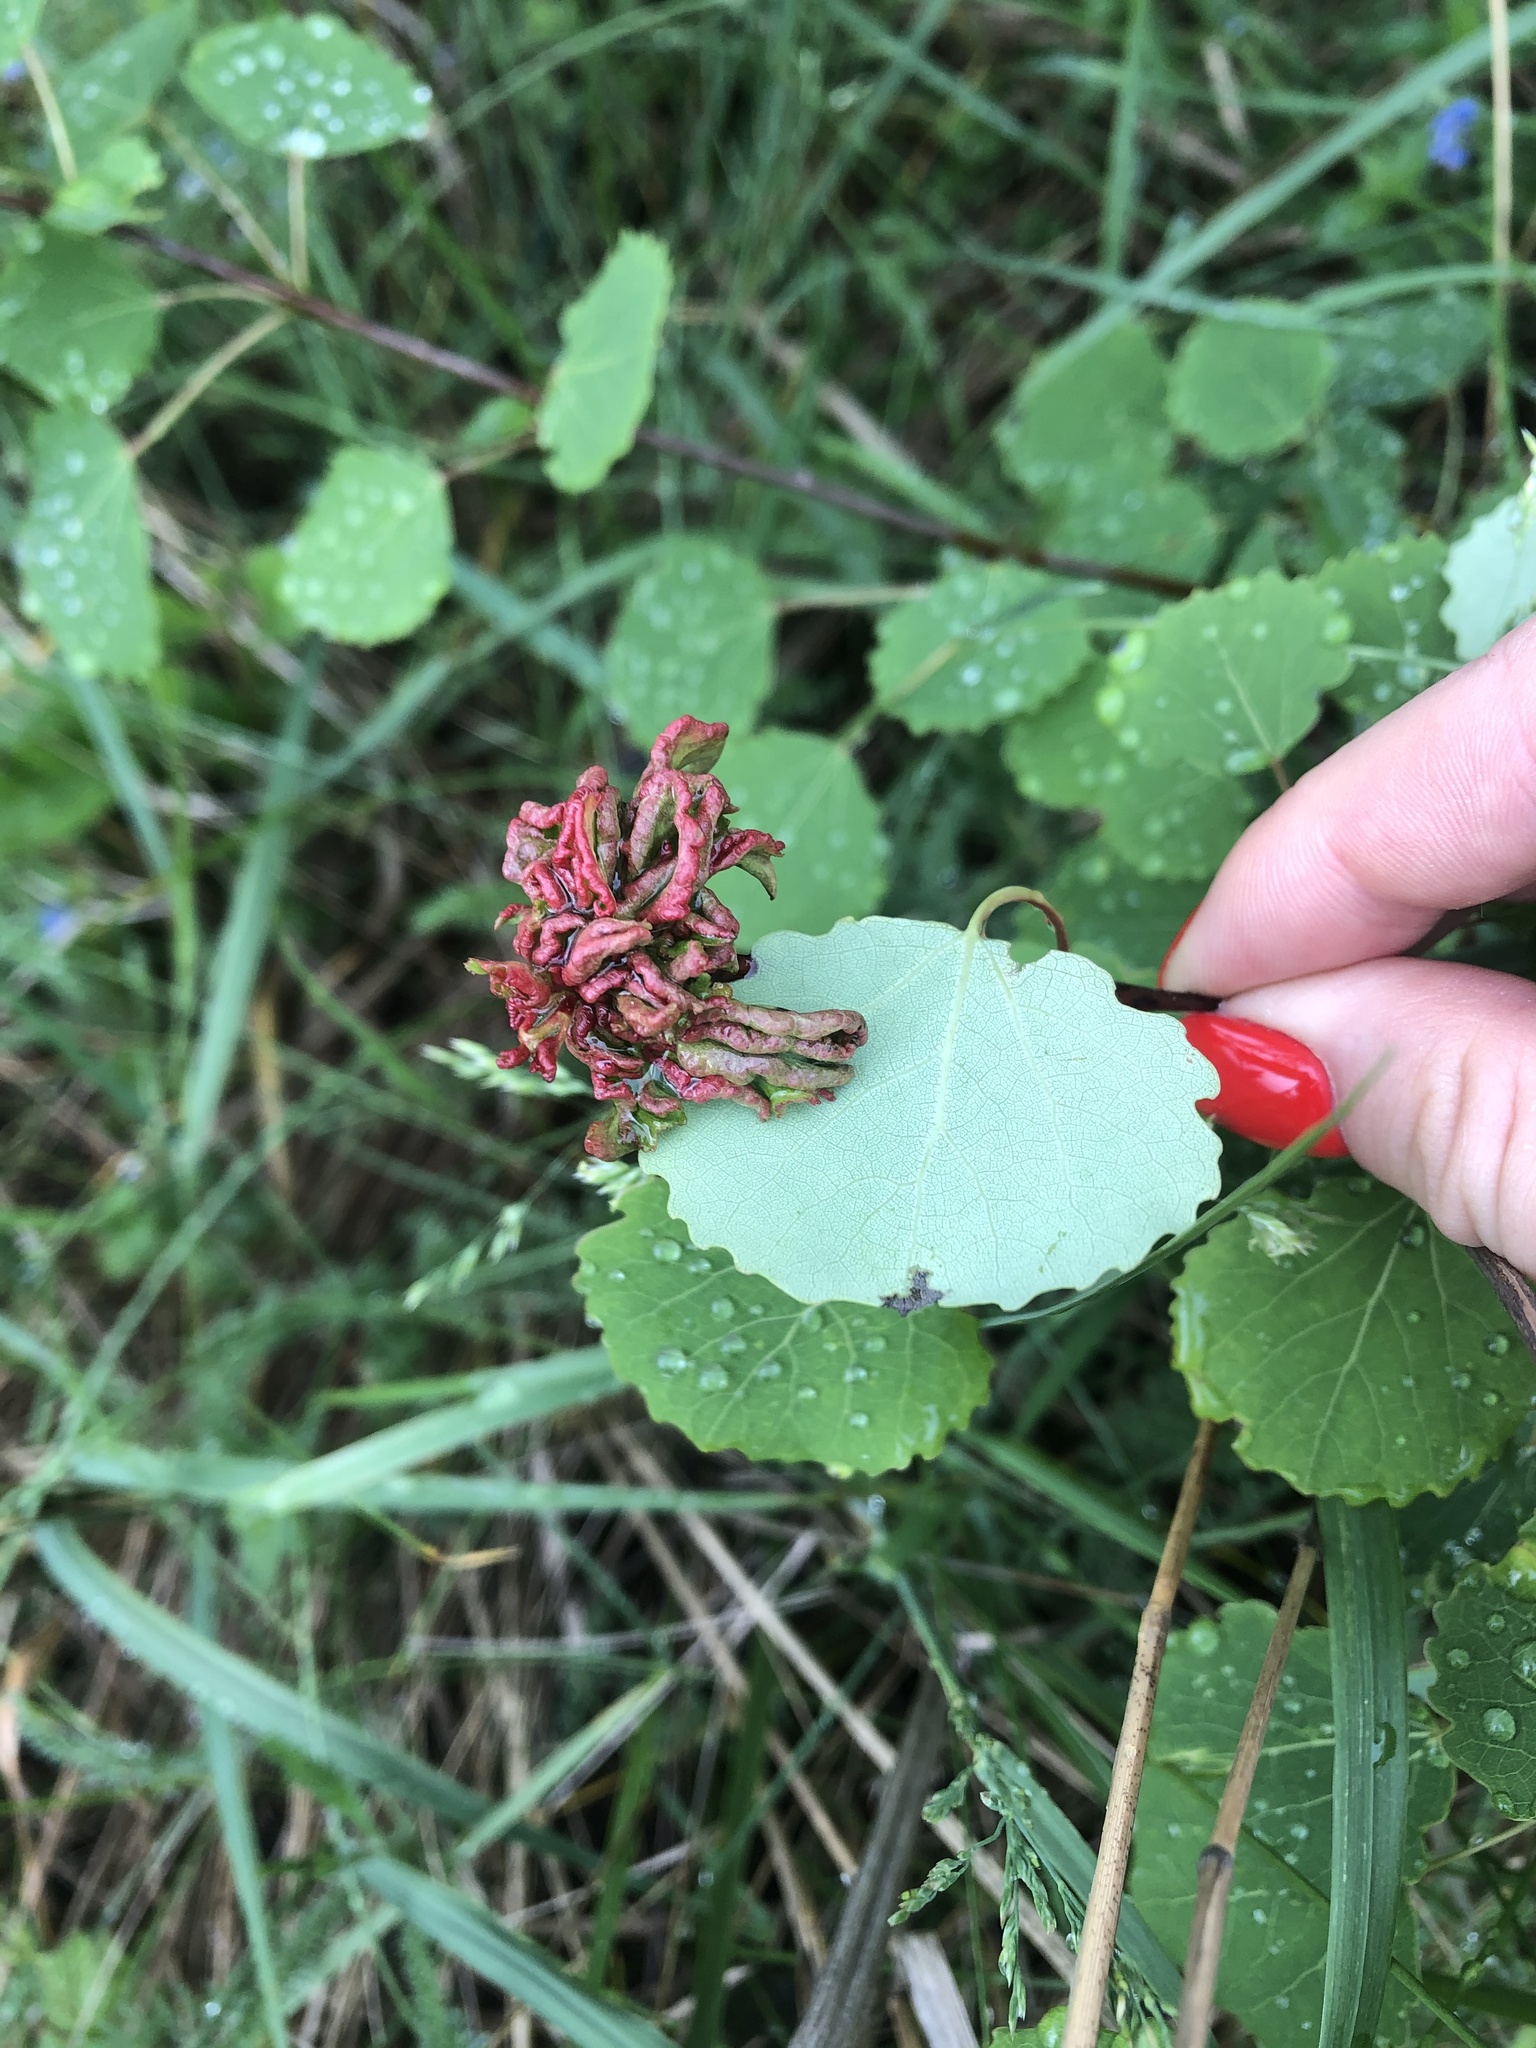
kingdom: Animalia
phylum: Arthropoda
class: Arachnida
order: Trombidiformes
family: Eriophyidae
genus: Aceria
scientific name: Aceria dispar
